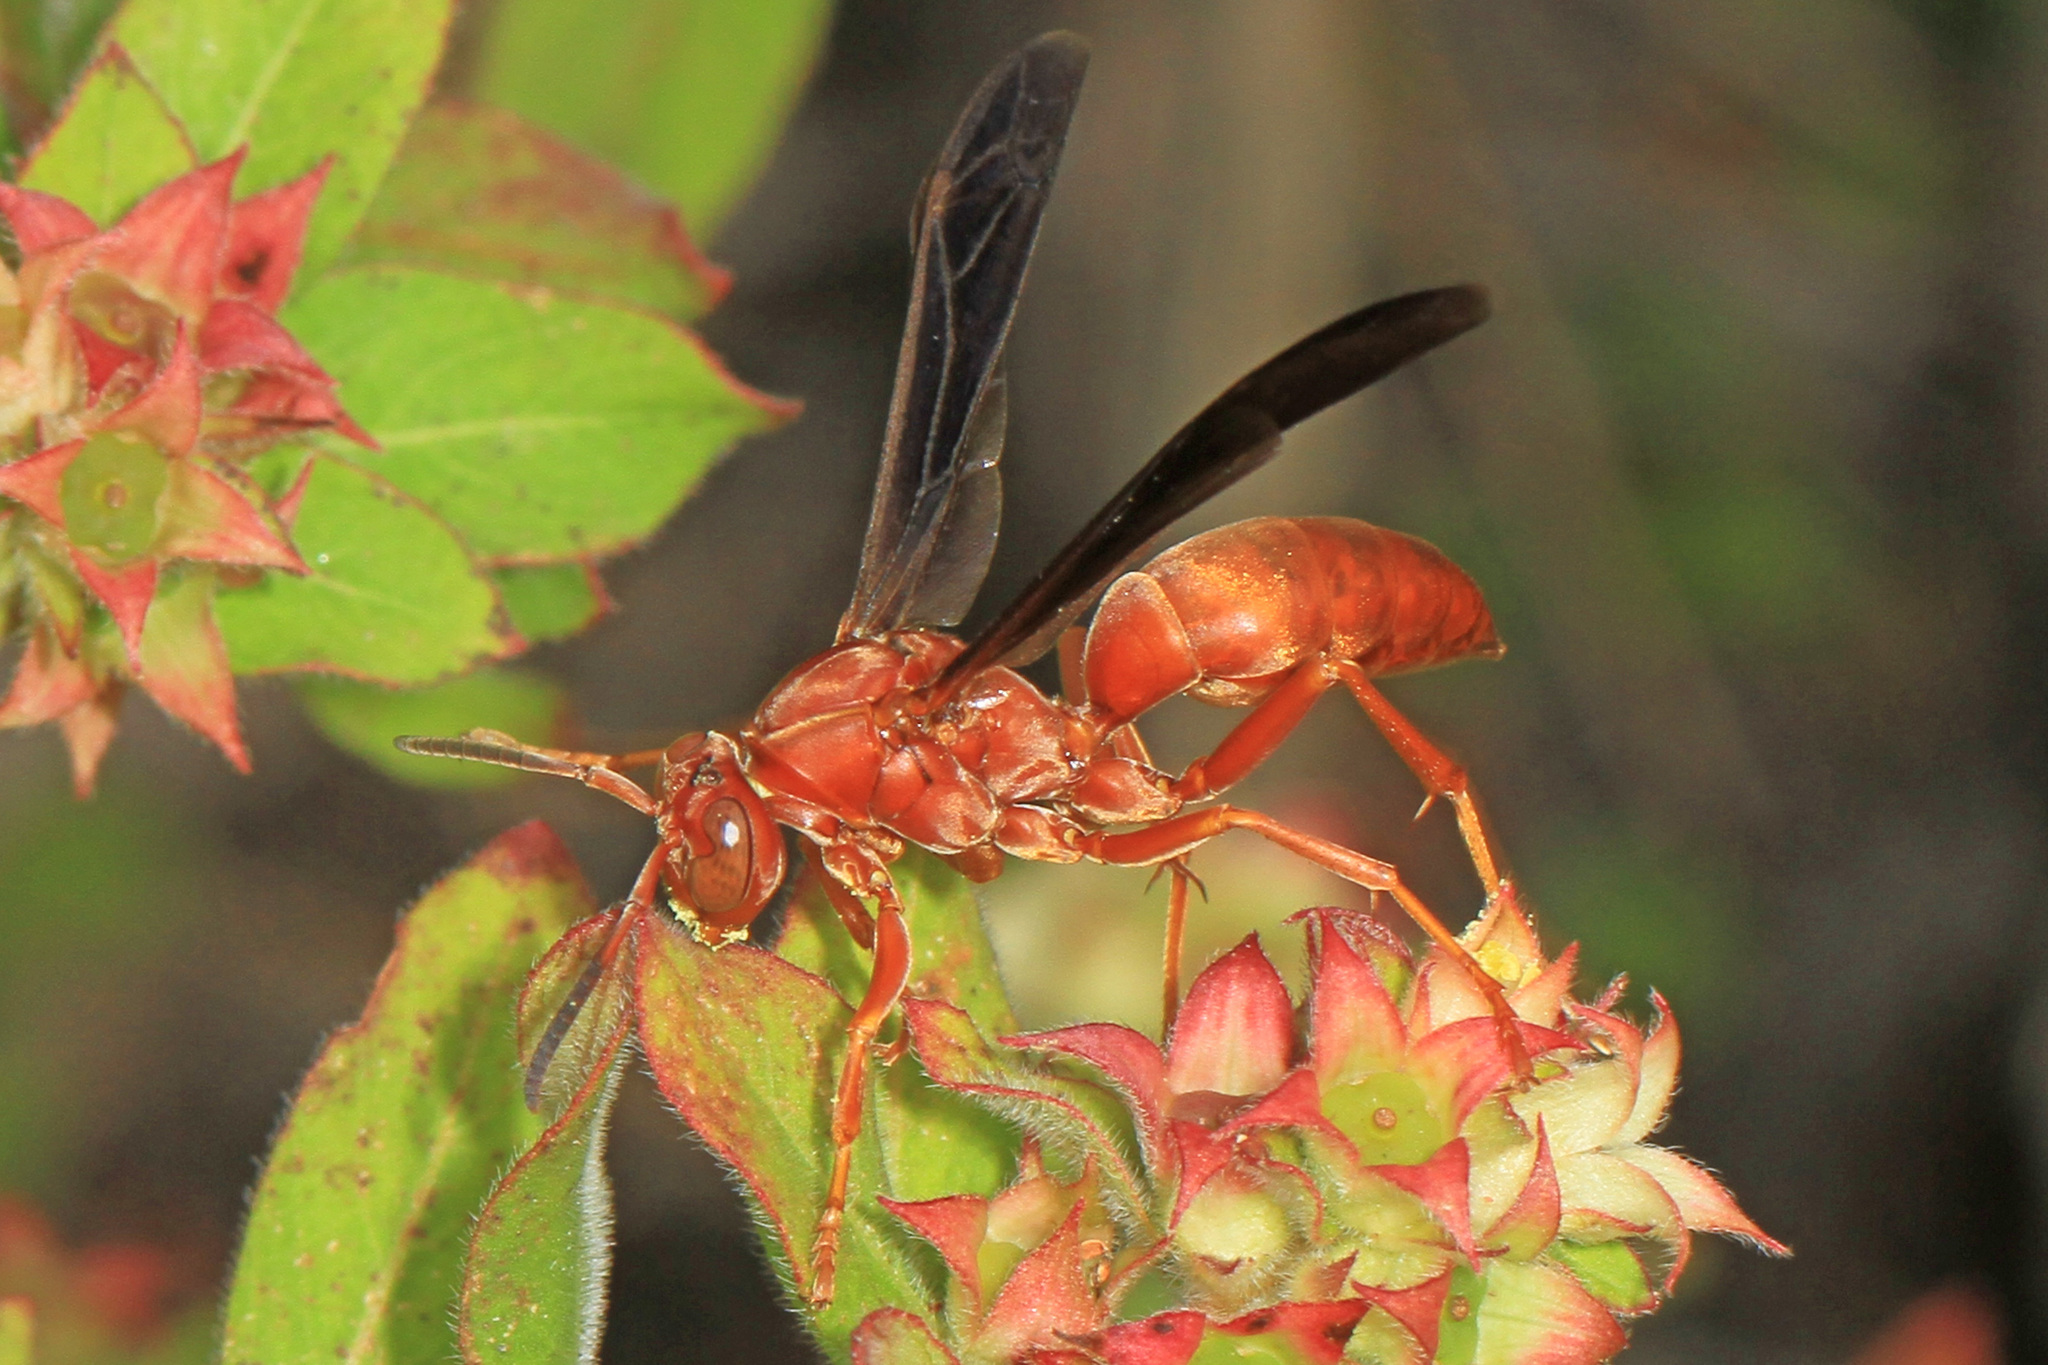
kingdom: Animalia
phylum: Arthropoda
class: Insecta
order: Hymenoptera
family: Eumenidae
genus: Polistes
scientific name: Polistes
